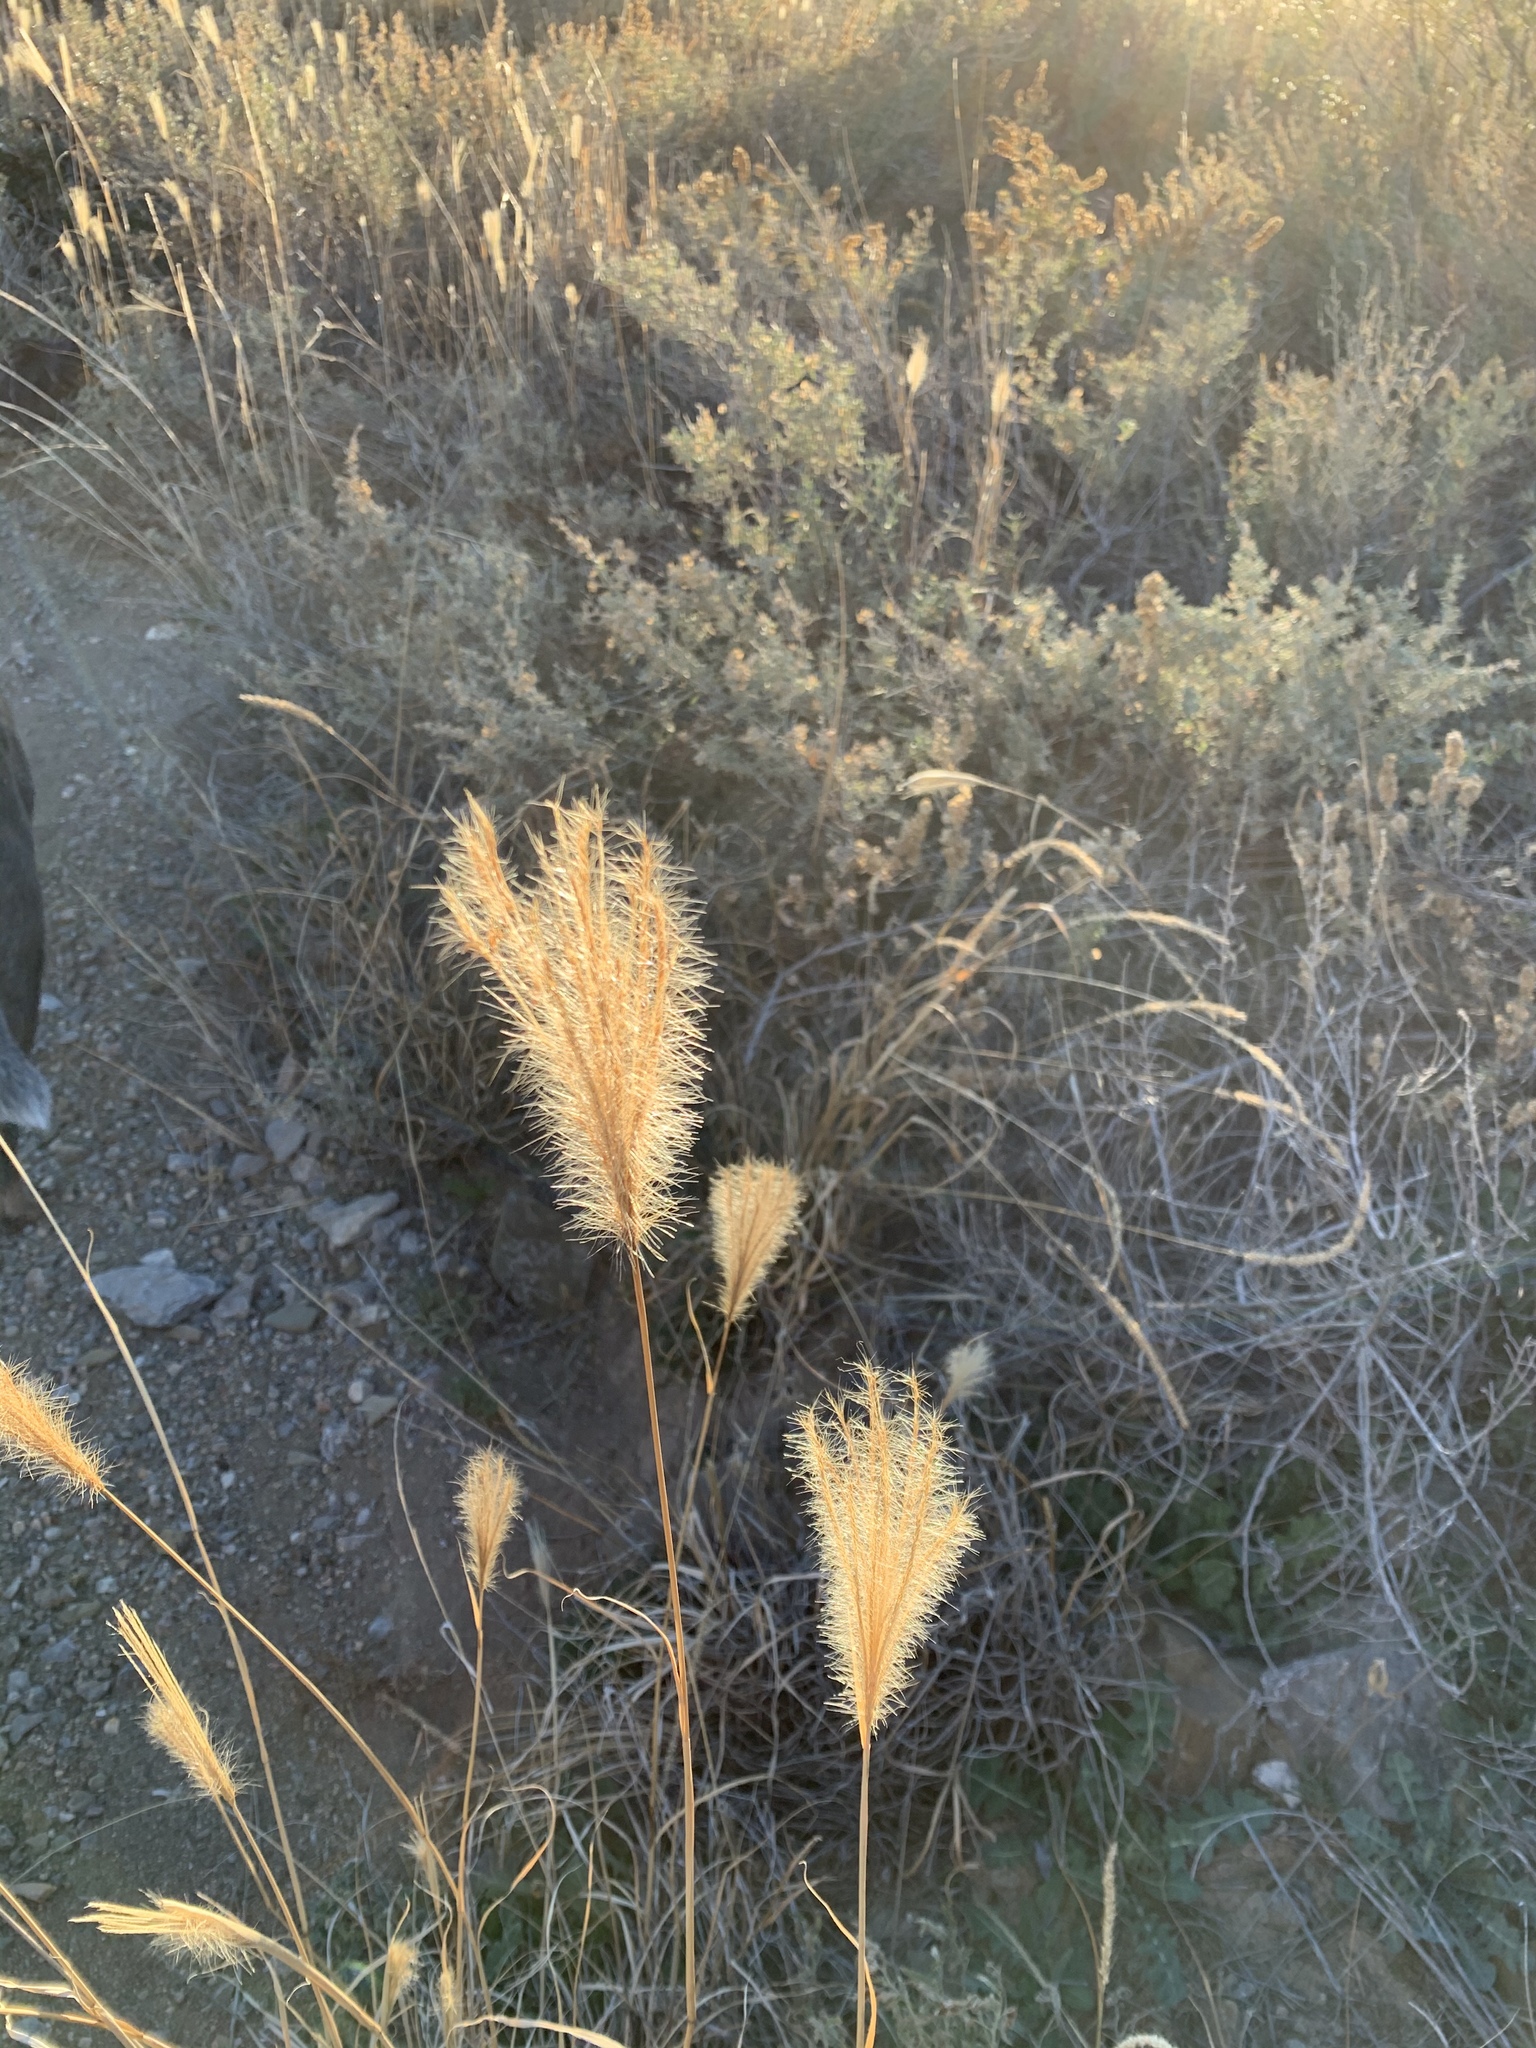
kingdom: Plantae
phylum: Tracheophyta
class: Liliopsida
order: Poales
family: Poaceae
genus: Chloris
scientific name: Chloris virgata
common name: Feathery rhodes-grass
